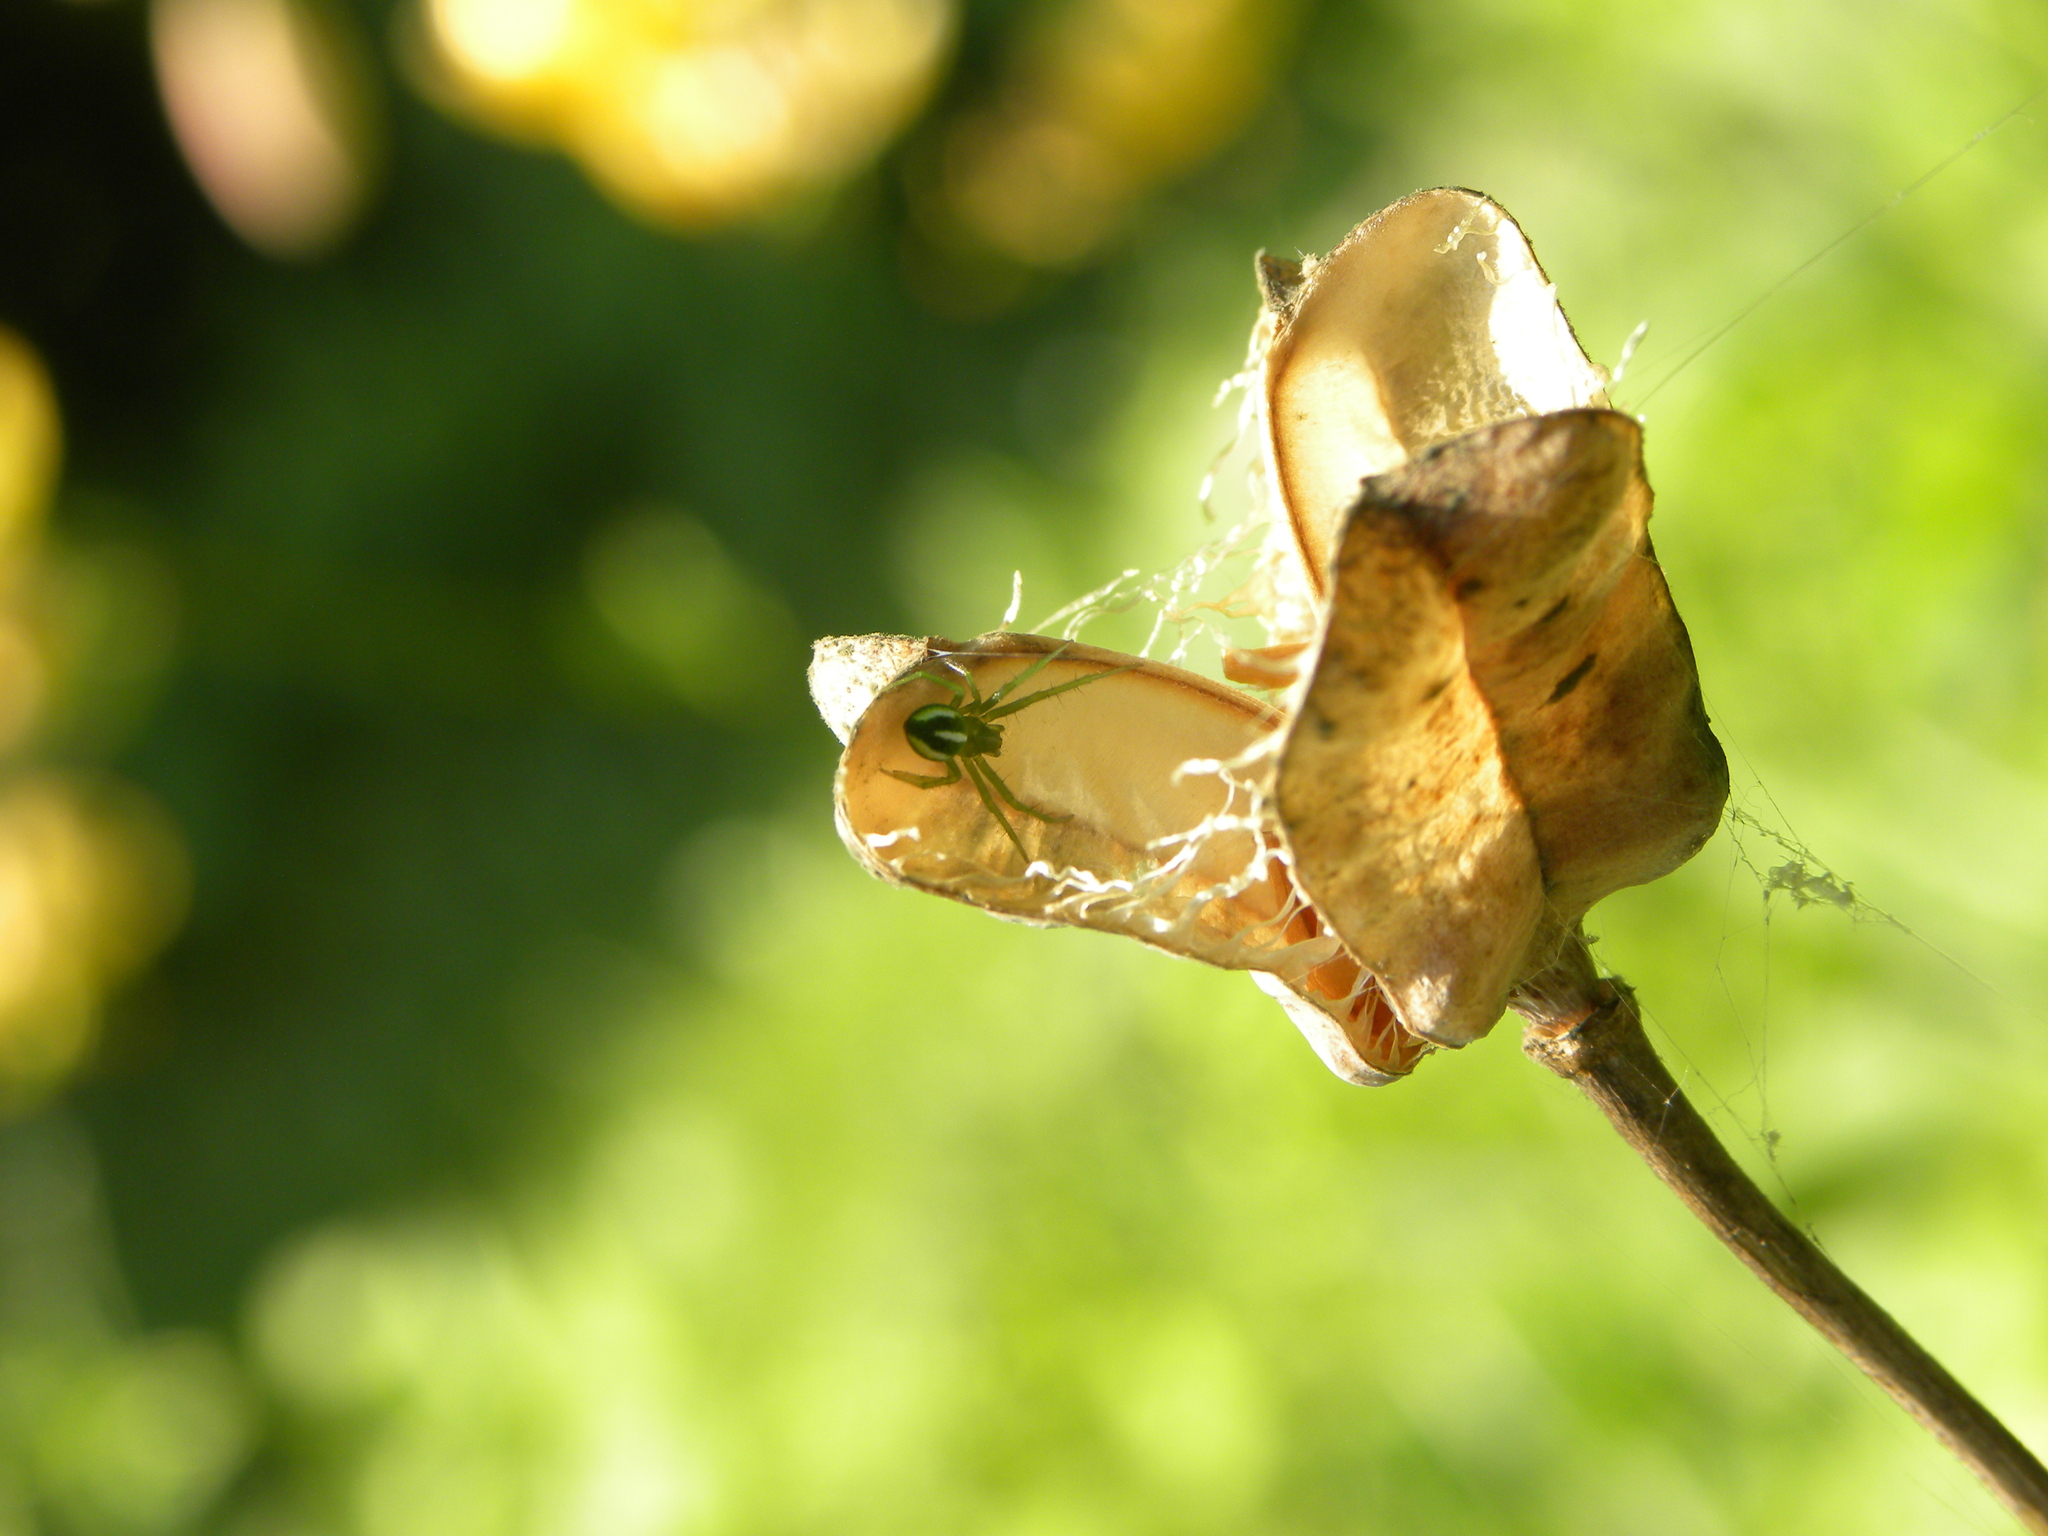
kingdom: Animalia
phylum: Arthropoda
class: Arachnida
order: Araneae
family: Araneidae
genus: Araneus
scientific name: Araneus juniperi
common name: Juniper orbweaver
